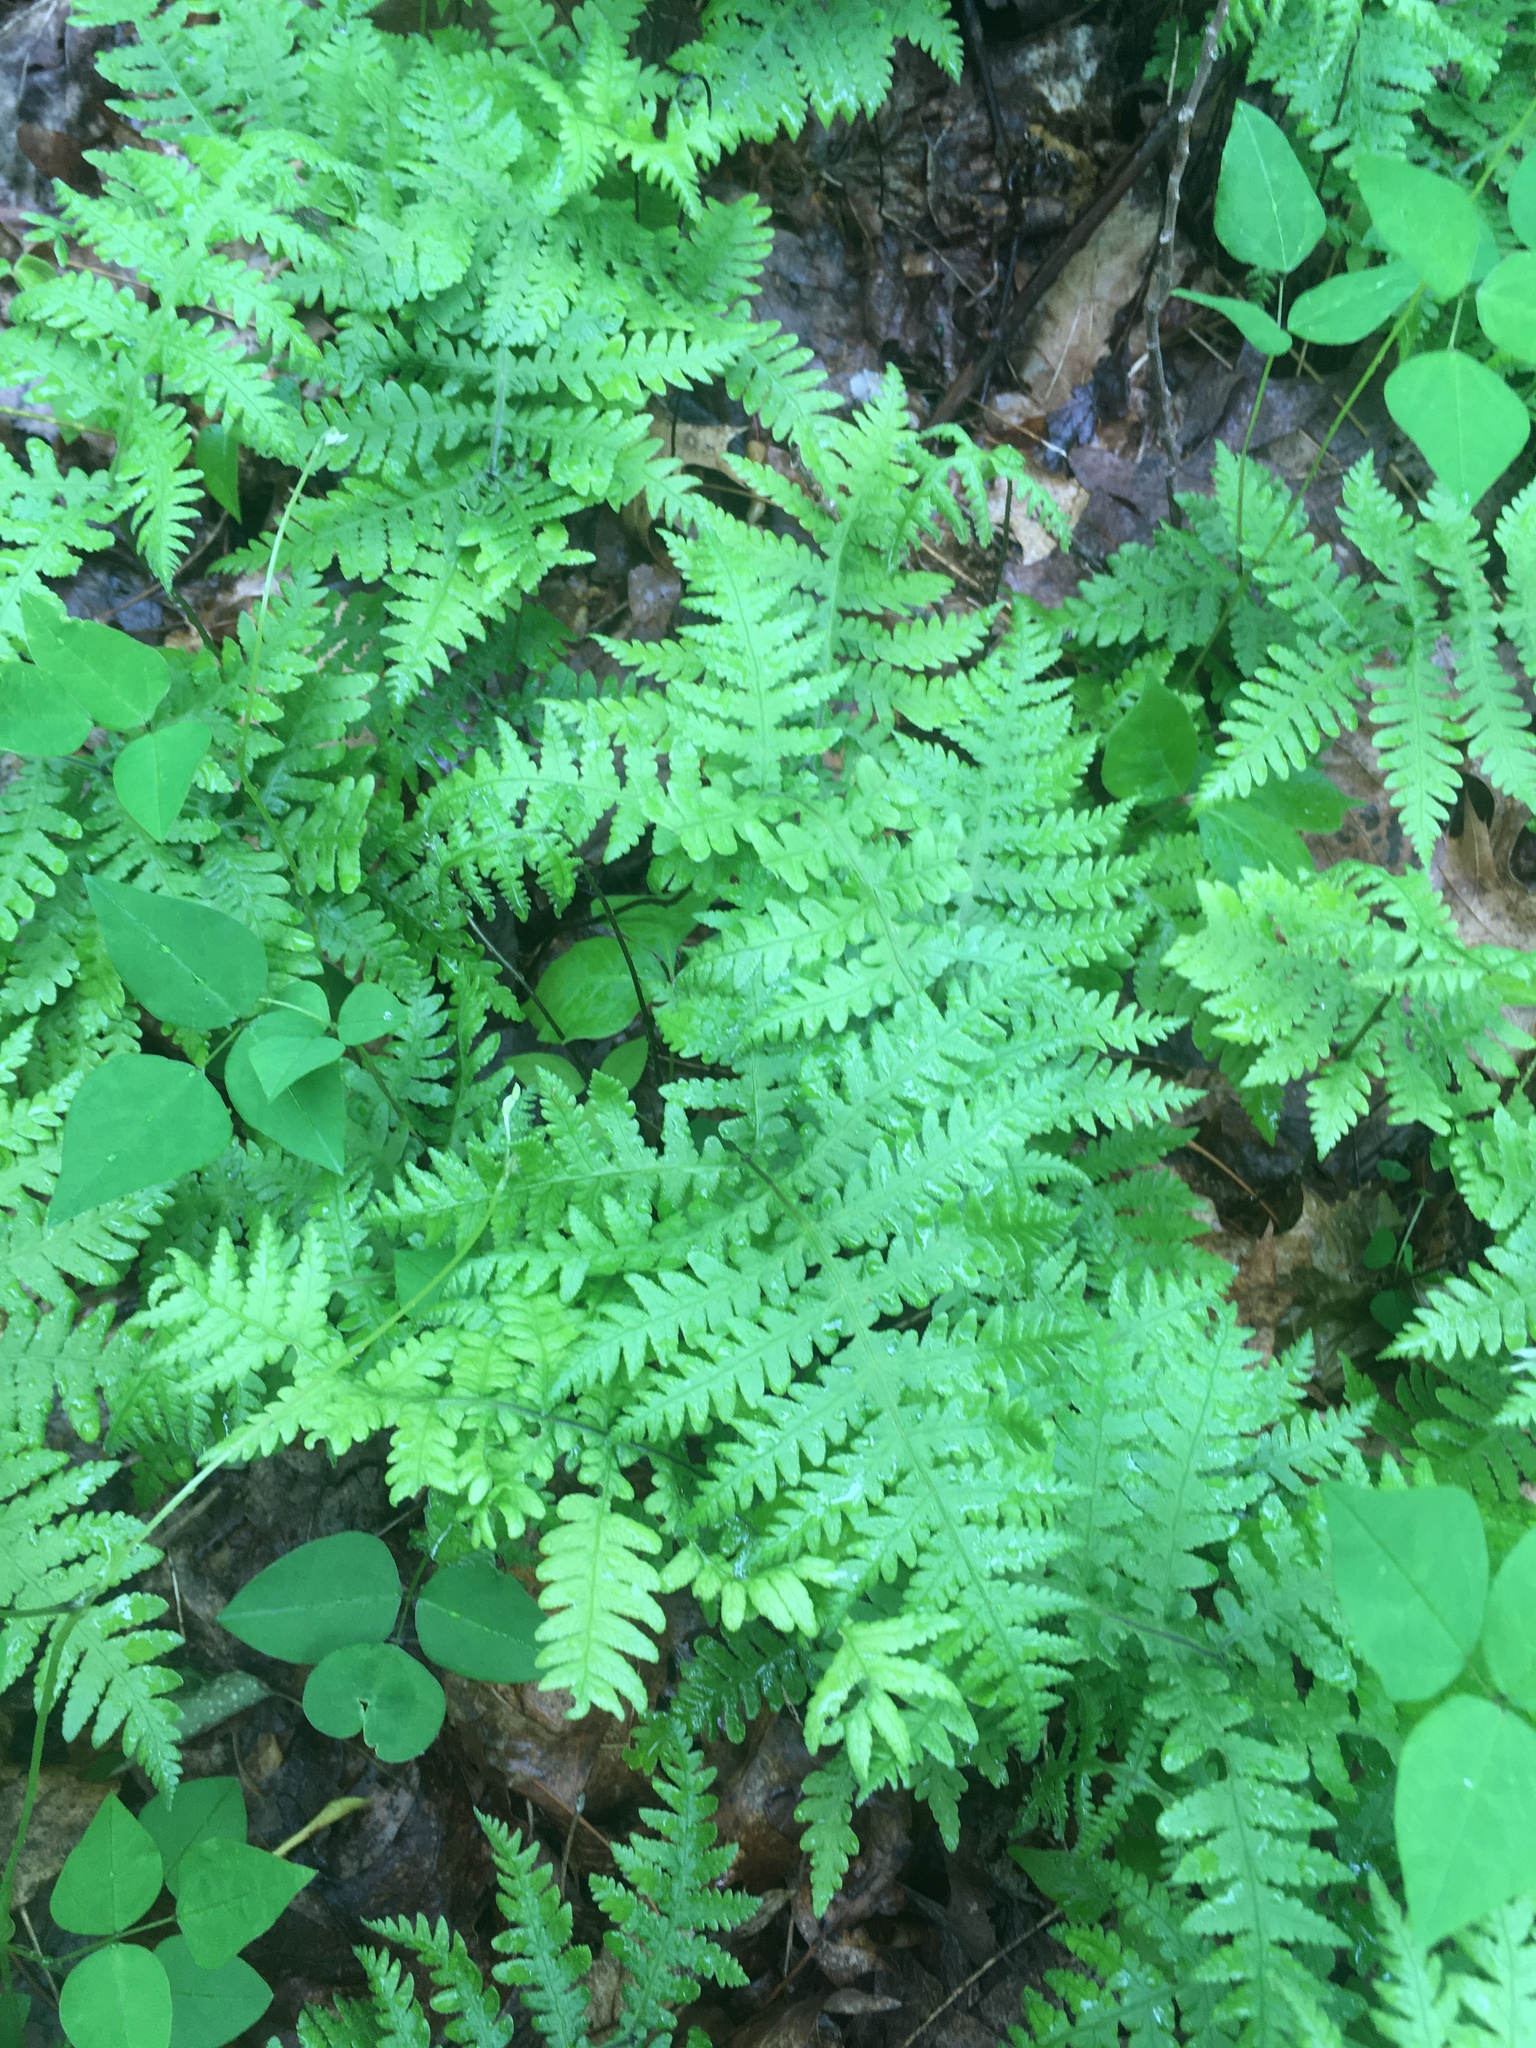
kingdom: Plantae
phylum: Tracheophyta
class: Polypodiopsida
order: Polypodiales
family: Thelypteridaceae
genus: Phegopteris
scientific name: Phegopteris hexagonoptera
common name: Broad beech fern
